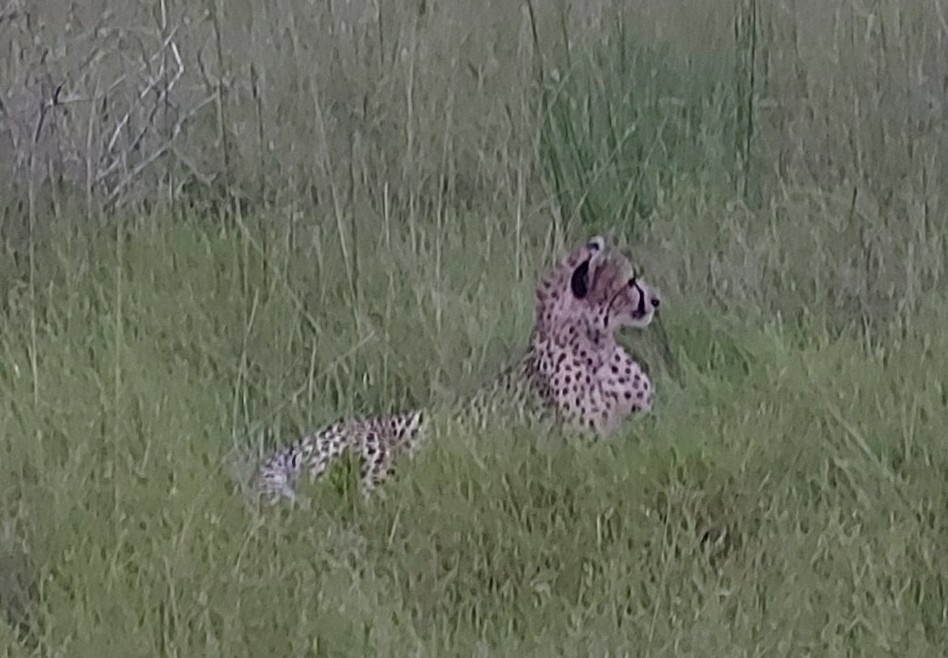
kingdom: Animalia
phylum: Chordata
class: Mammalia
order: Carnivora
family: Felidae
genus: Acinonyx
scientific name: Acinonyx jubatus
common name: Cheetah
